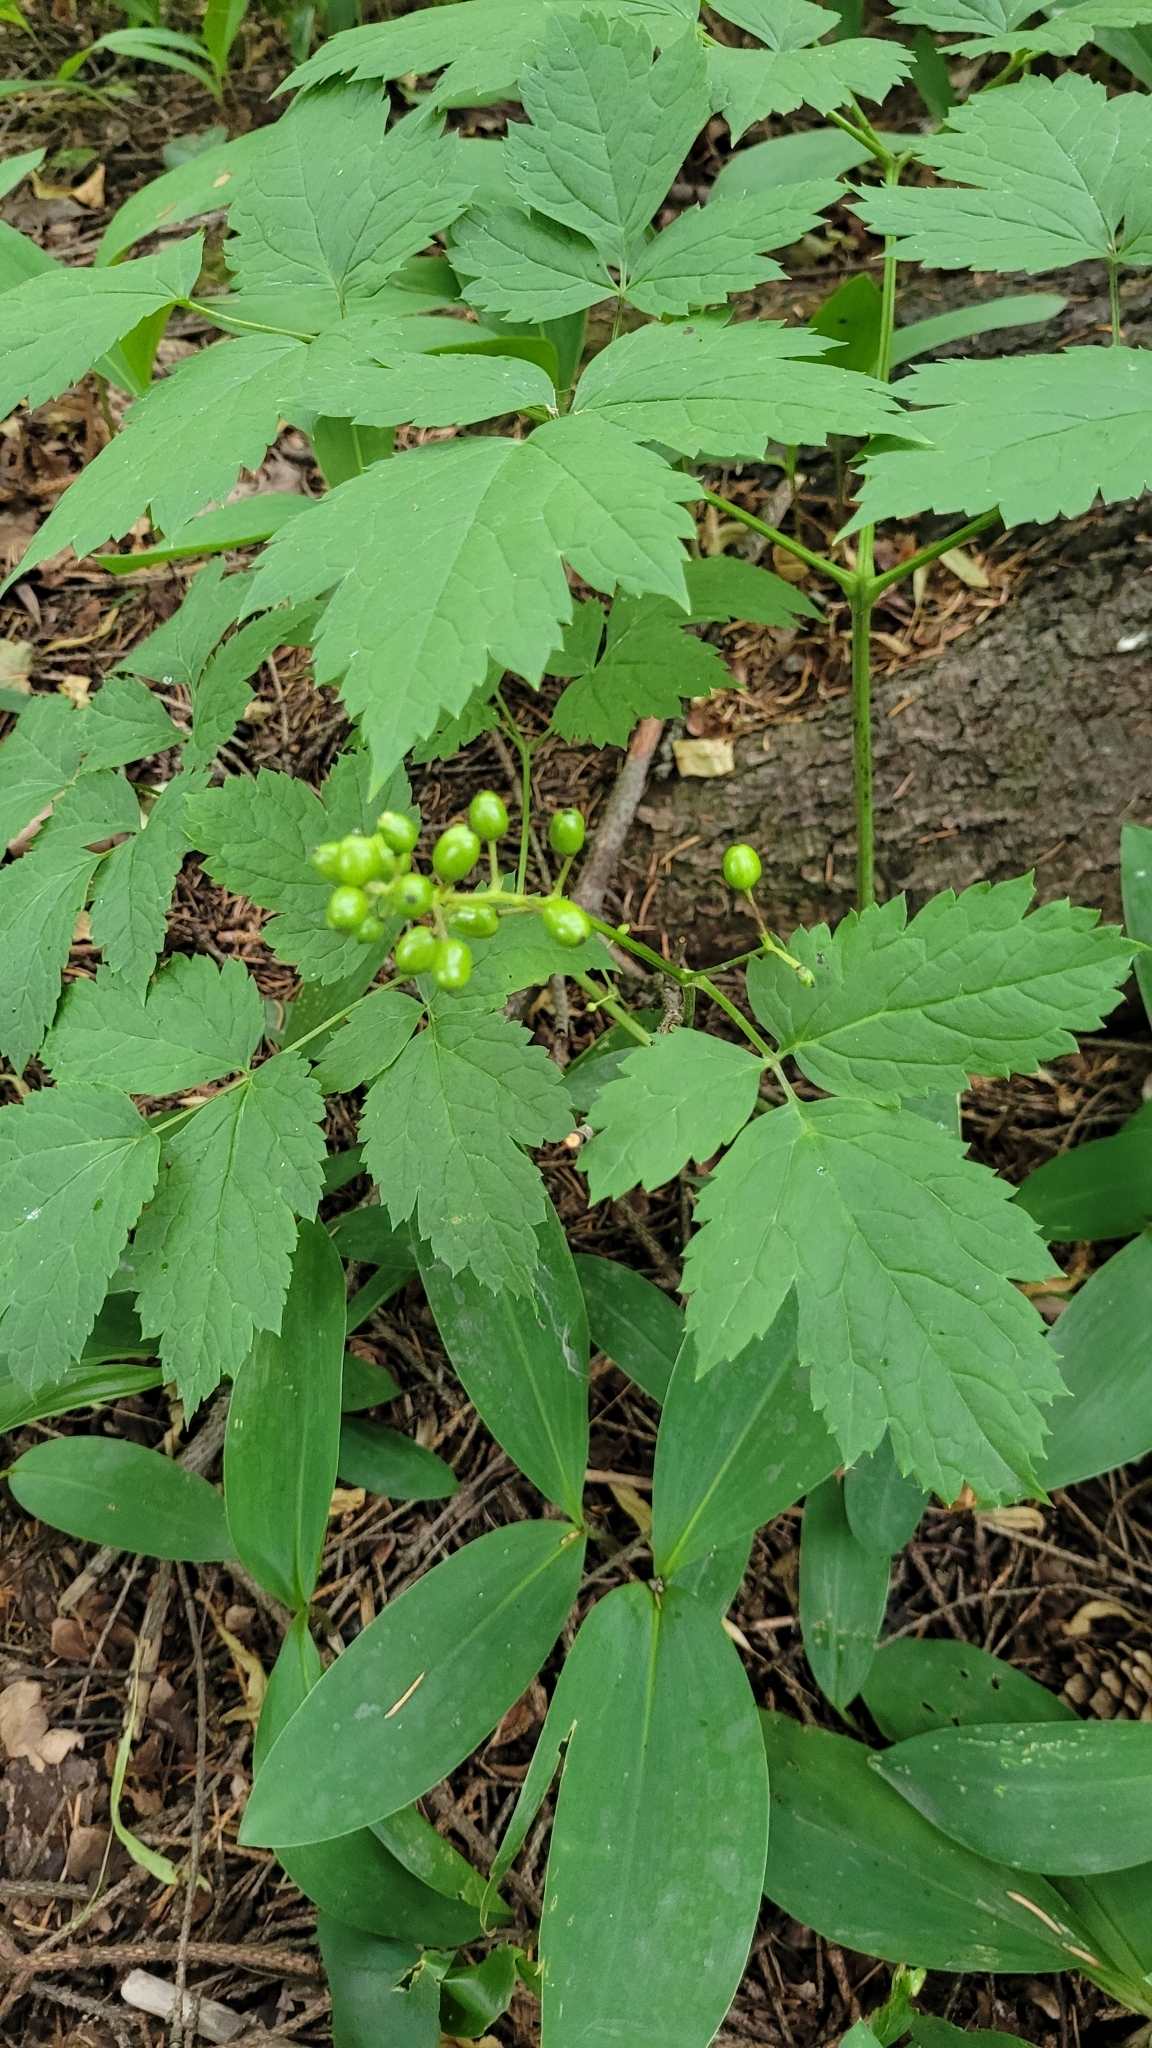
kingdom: Plantae
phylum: Tracheophyta
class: Magnoliopsida
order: Ranunculales
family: Ranunculaceae
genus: Actaea
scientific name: Actaea spicata
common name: Baneberry
